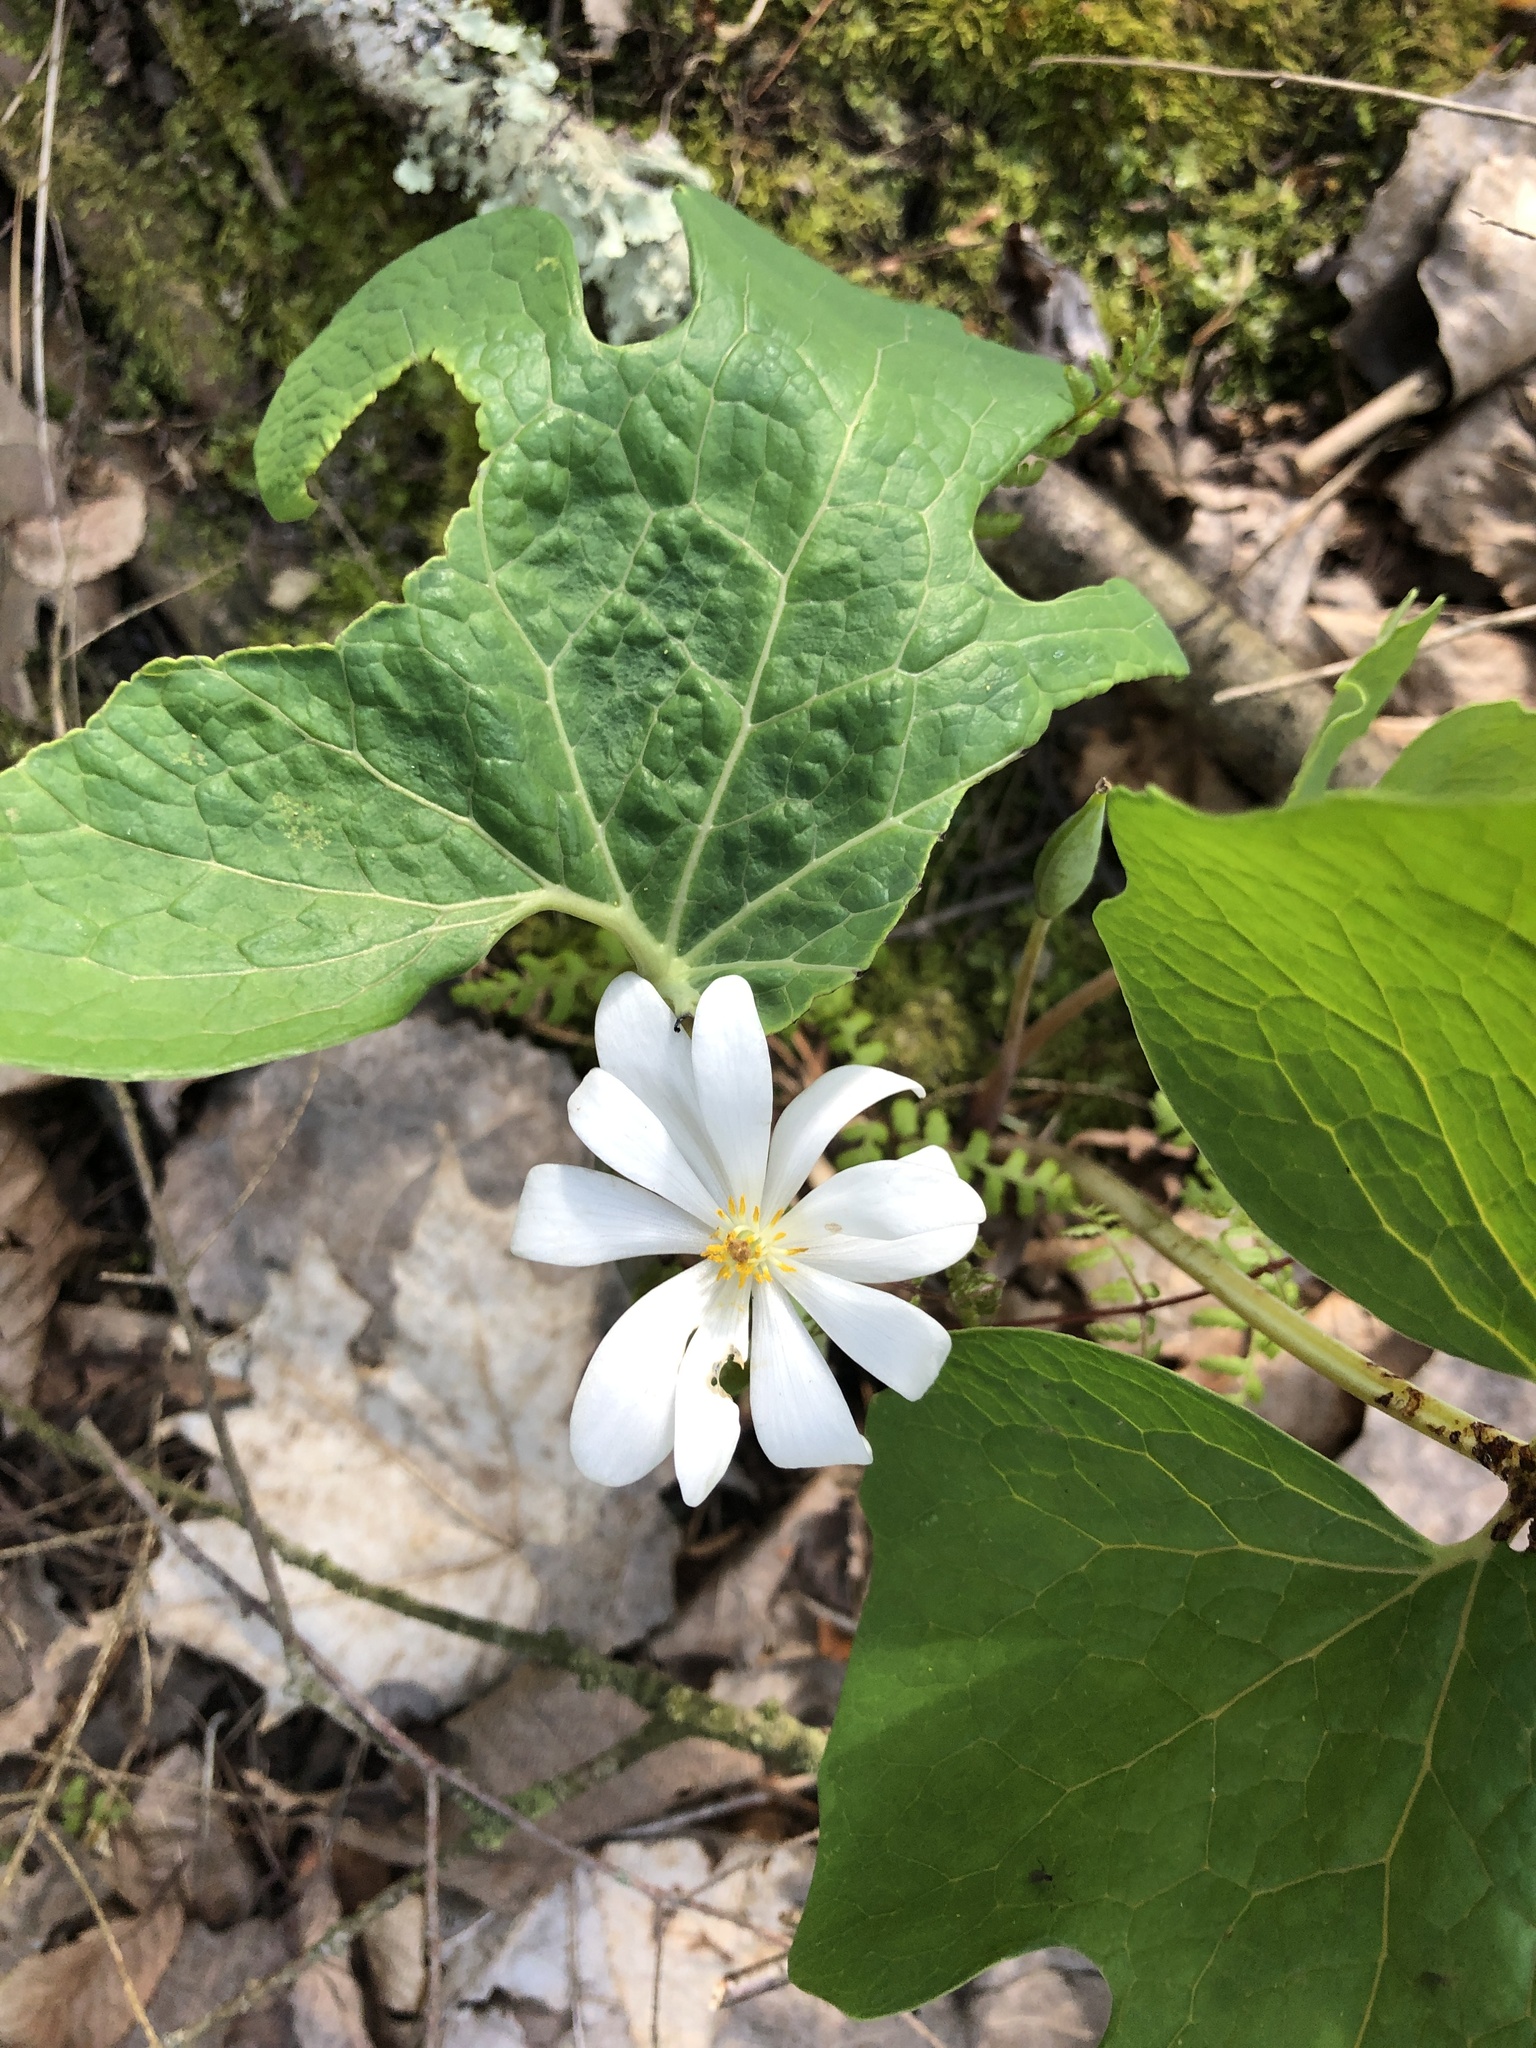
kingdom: Plantae
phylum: Tracheophyta
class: Magnoliopsida
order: Ranunculales
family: Papaveraceae
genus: Sanguinaria
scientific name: Sanguinaria canadensis
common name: Bloodroot
